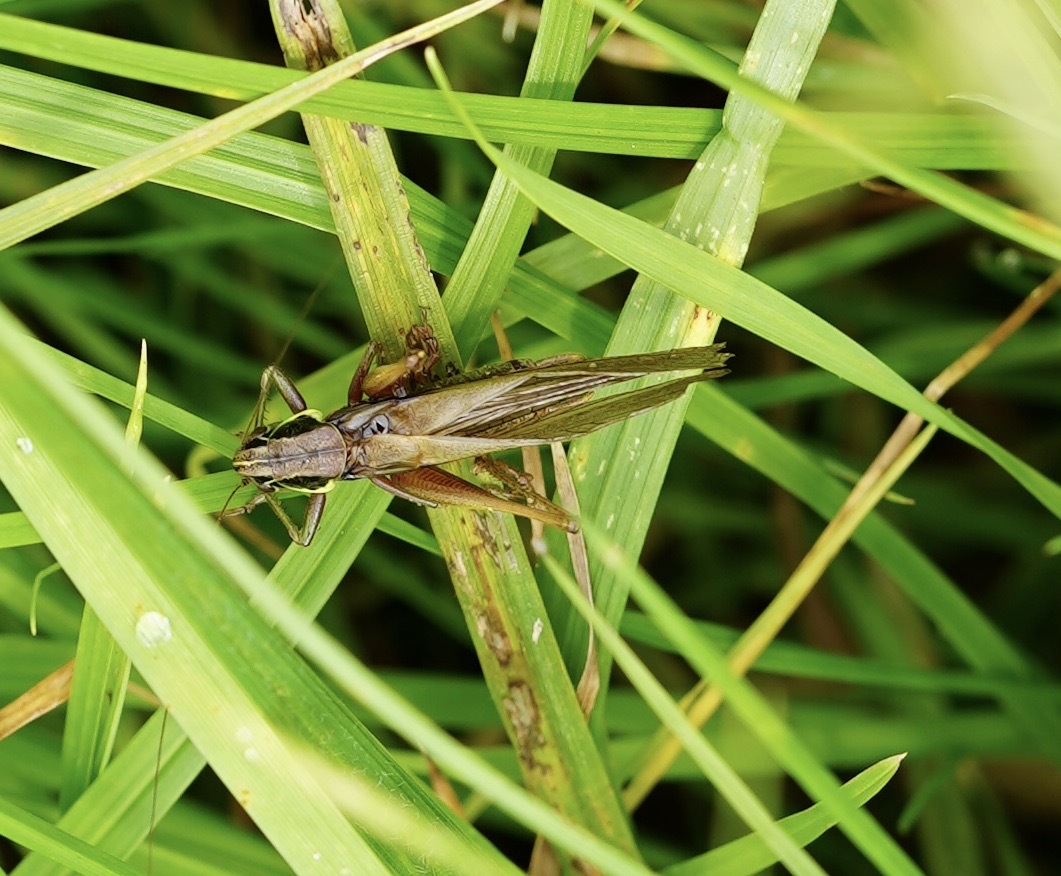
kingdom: Animalia
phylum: Arthropoda
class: Insecta
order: Orthoptera
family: Tettigoniidae
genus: Roeseliana
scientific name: Roeseliana roeselii
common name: Roesel's bush cricket
